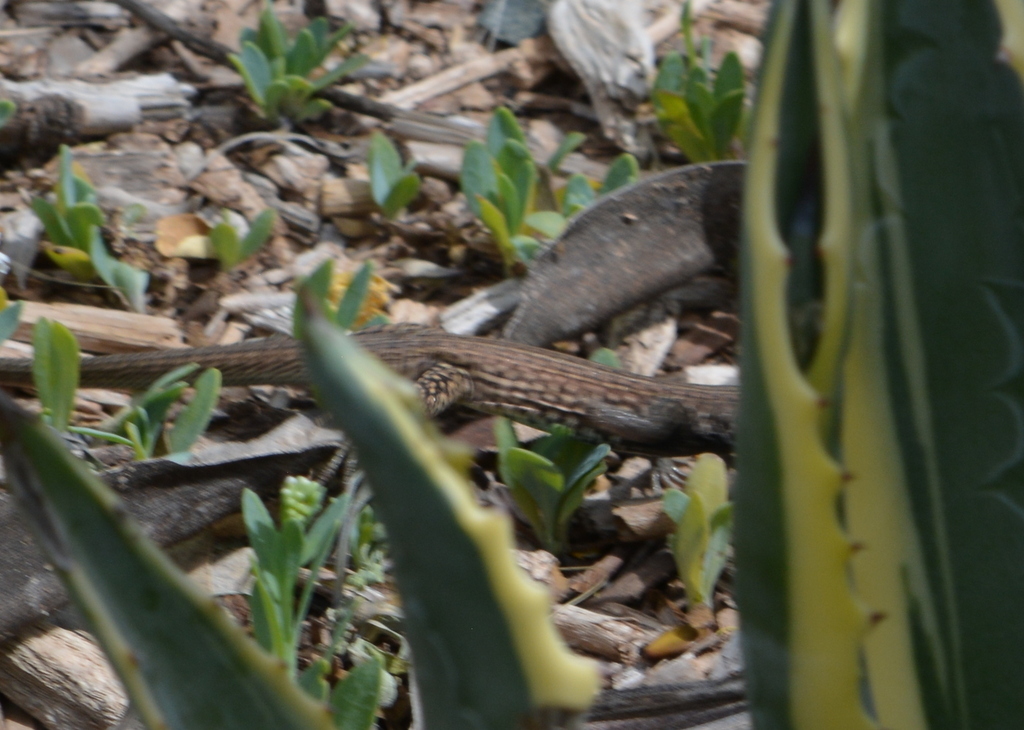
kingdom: Animalia
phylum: Chordata
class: Squamata
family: Teiidae
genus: Aspidoscelis
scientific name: Aspidoscelis tigris
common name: Tiger whiptail
